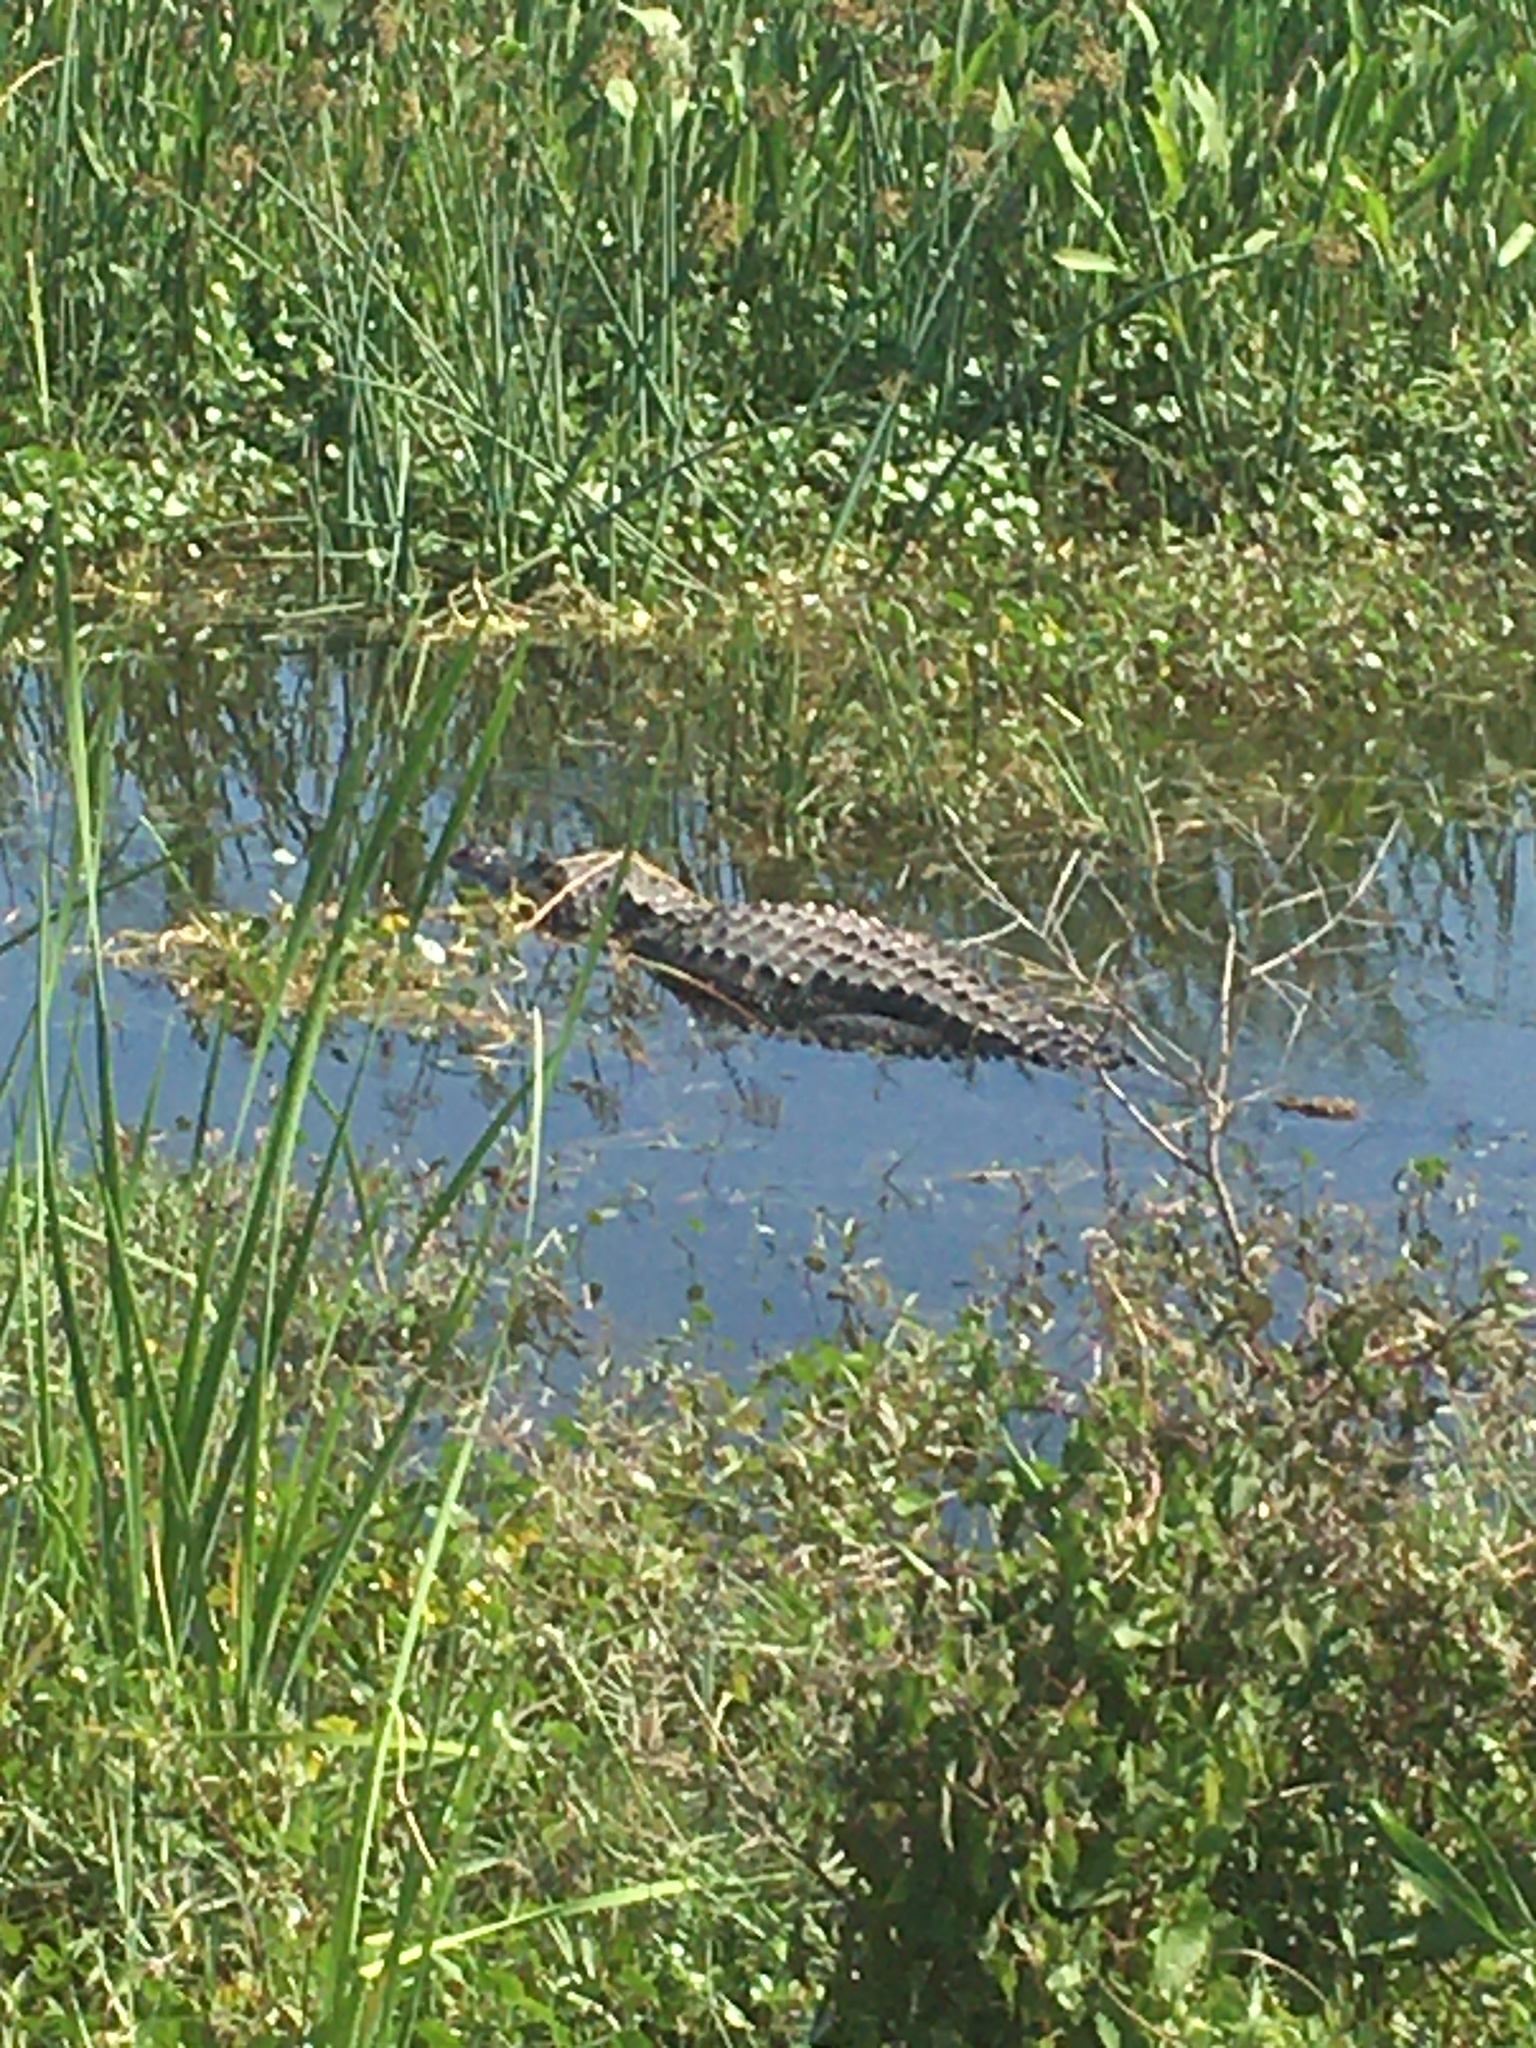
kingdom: Animalia
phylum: Chordata
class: Crocodylia
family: Alligatoridae
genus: Alligator
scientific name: Alligator mississippiensis
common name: American alligator
